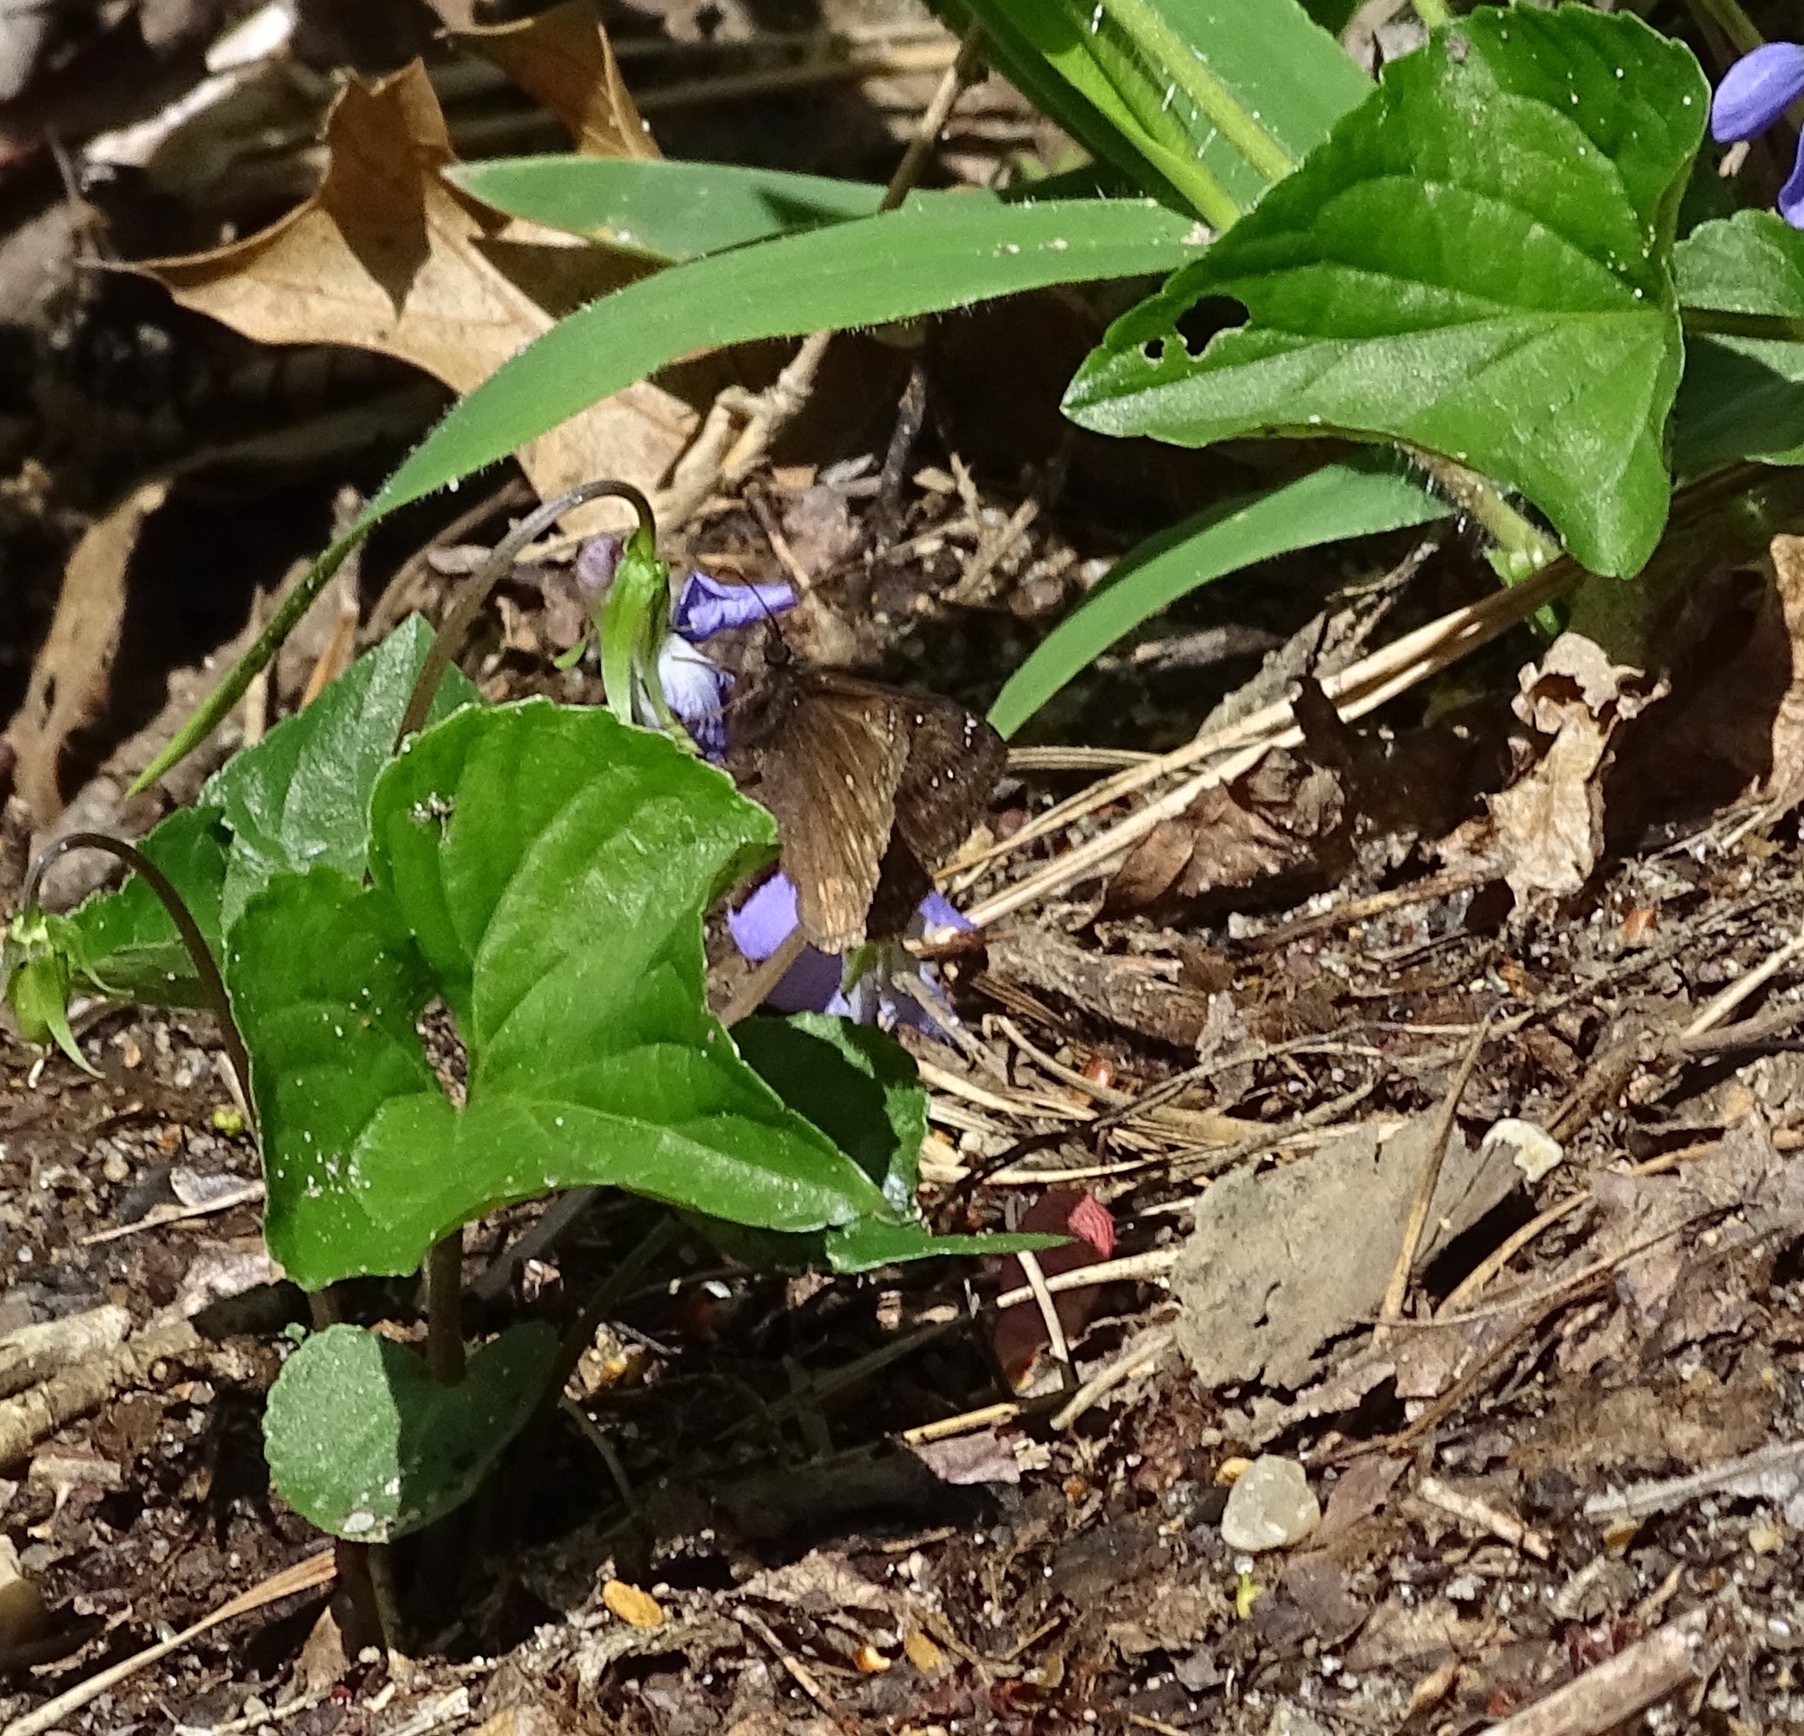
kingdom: Animalia
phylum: Arthropoda
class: Insecta
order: Lepidoptera
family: Hesperiidae
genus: Erynnis
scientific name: Erynnis juvenalis
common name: Juvenal's duskywing
